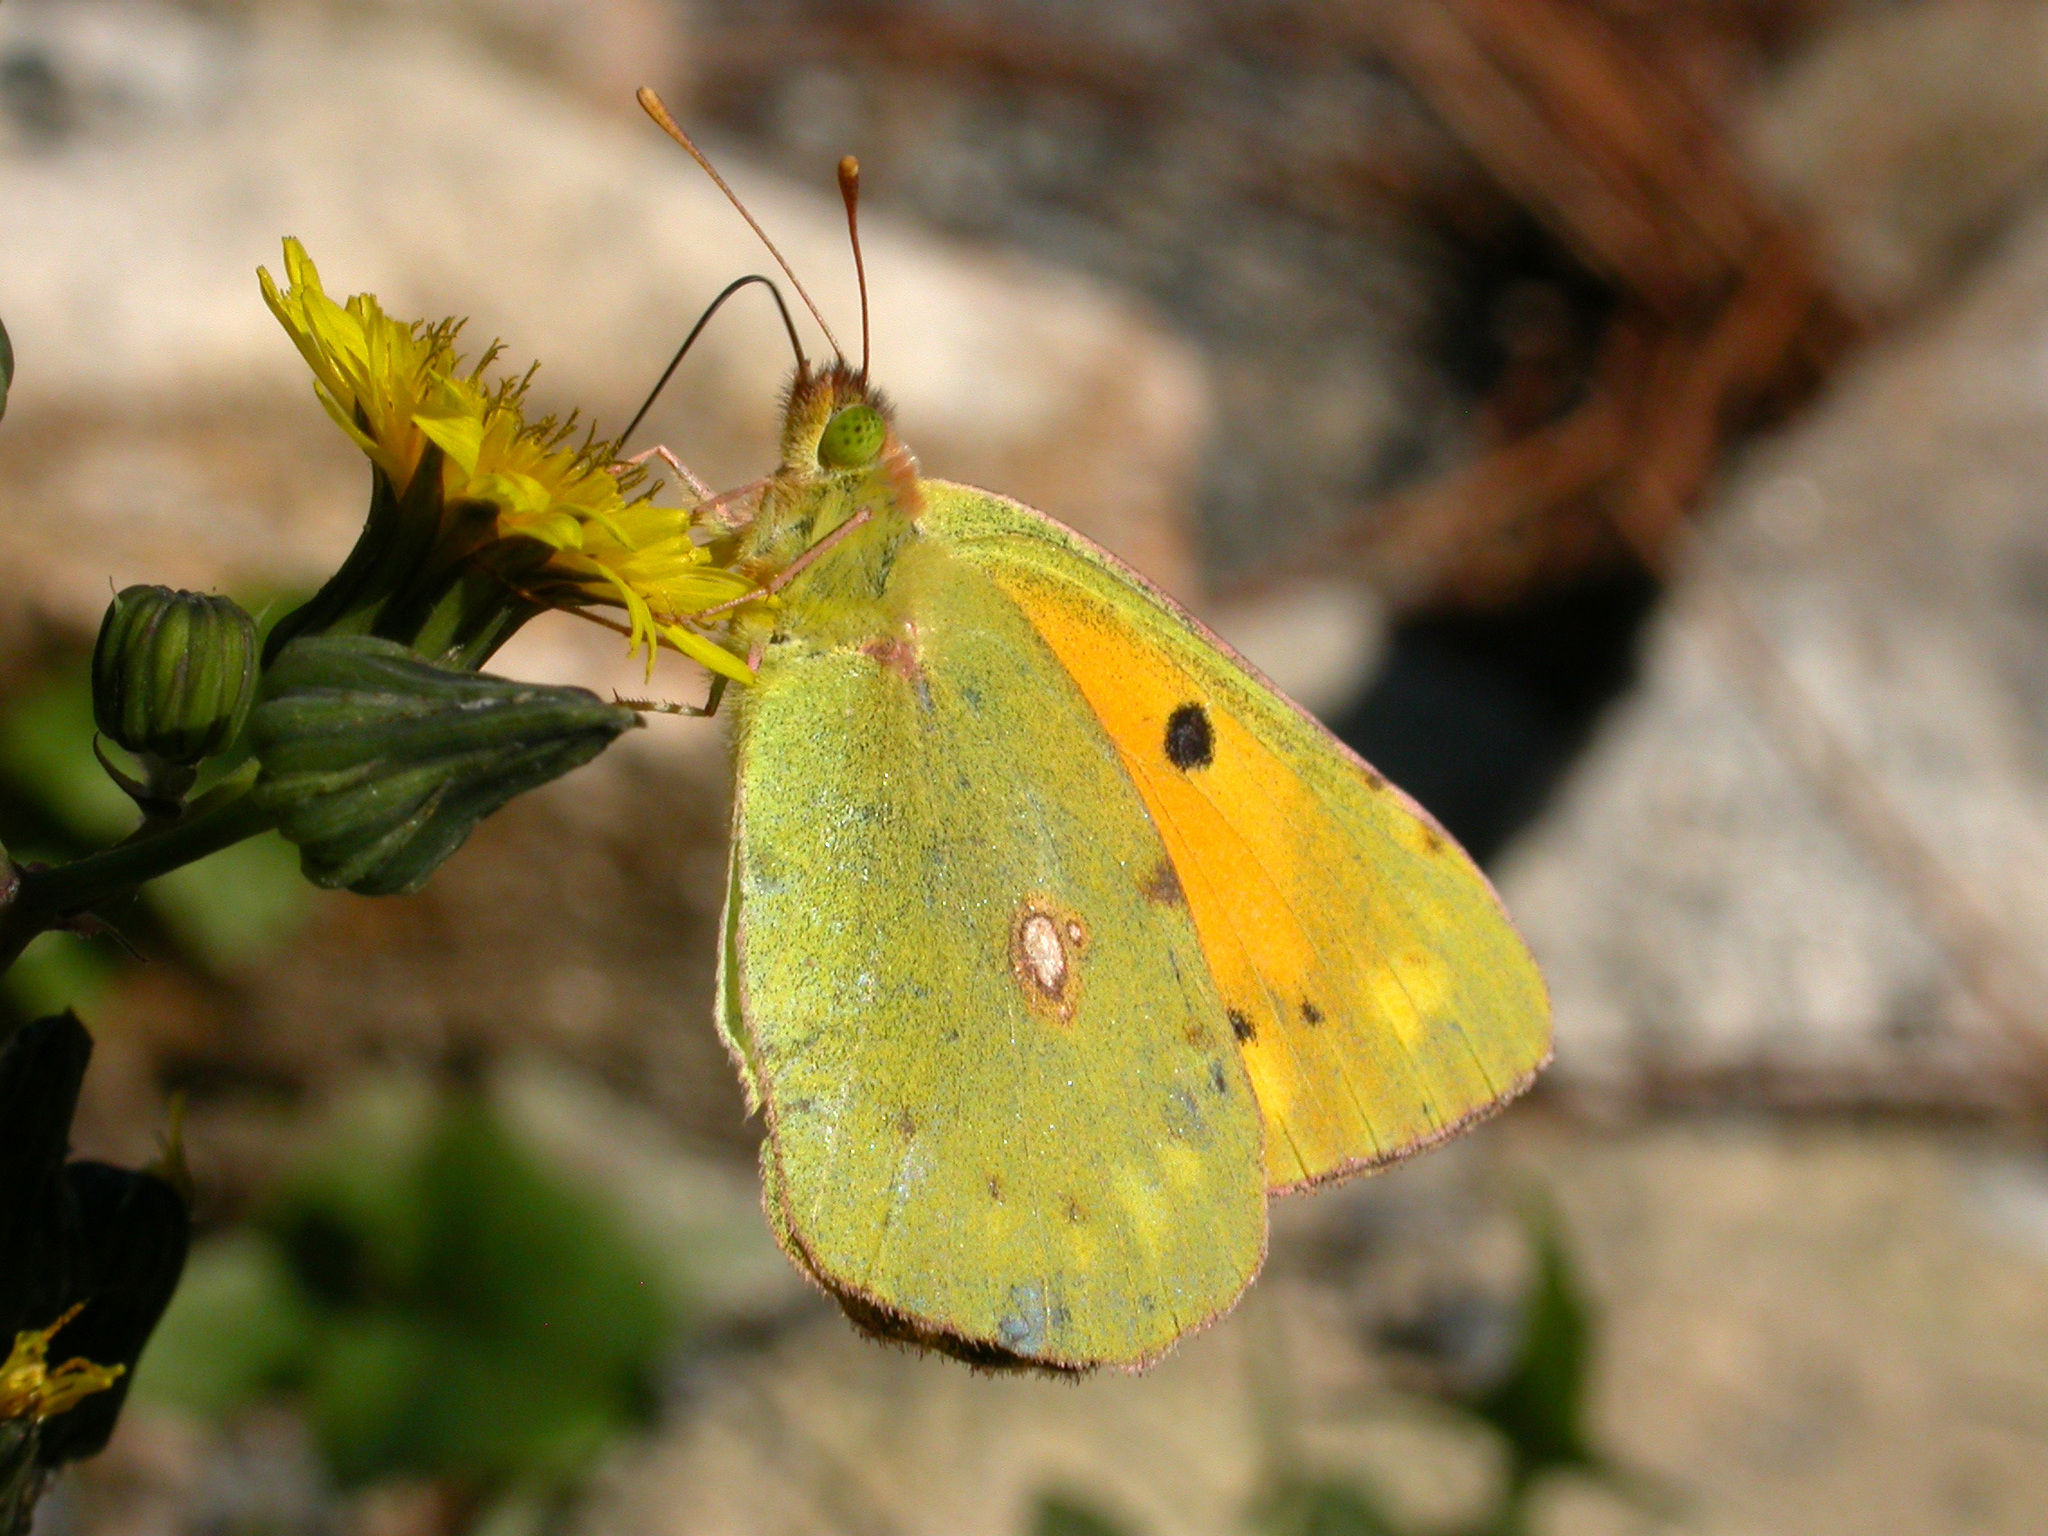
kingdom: Animalia
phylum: Arthropoda
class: Insecta
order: Lepidoptera
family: Pieridae
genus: Colias
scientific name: Colias croceus
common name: Clouded yellow
